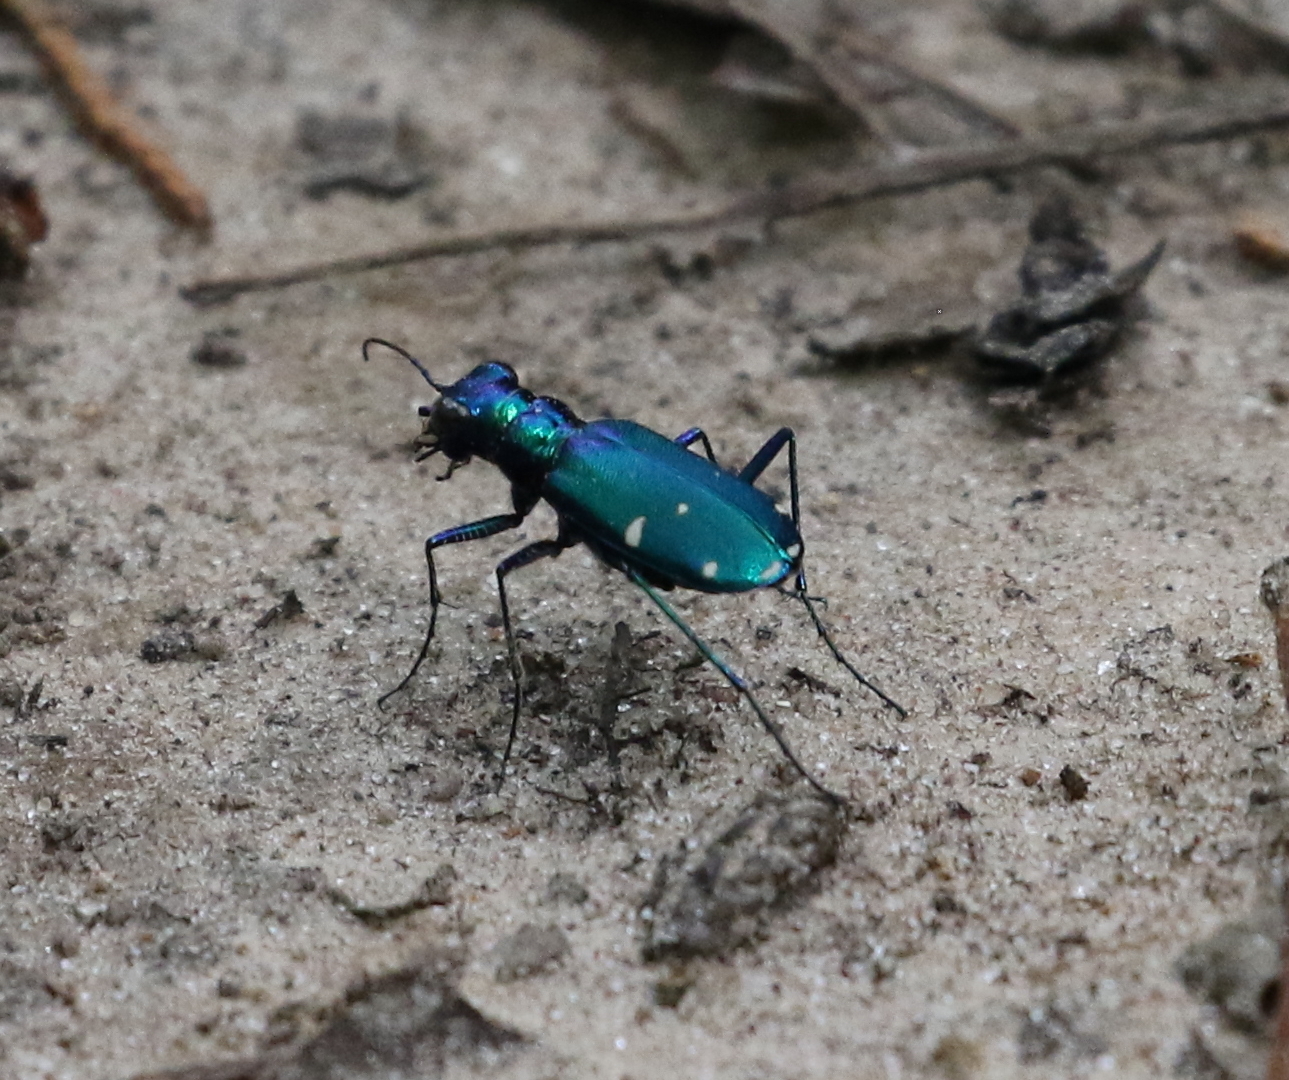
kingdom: Animalia
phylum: Arthropoda
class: Insecta
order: Coleoptera
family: Carabidae
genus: Cicindela
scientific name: Cicindela sexguttata
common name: Six-spotted tiger beetle
